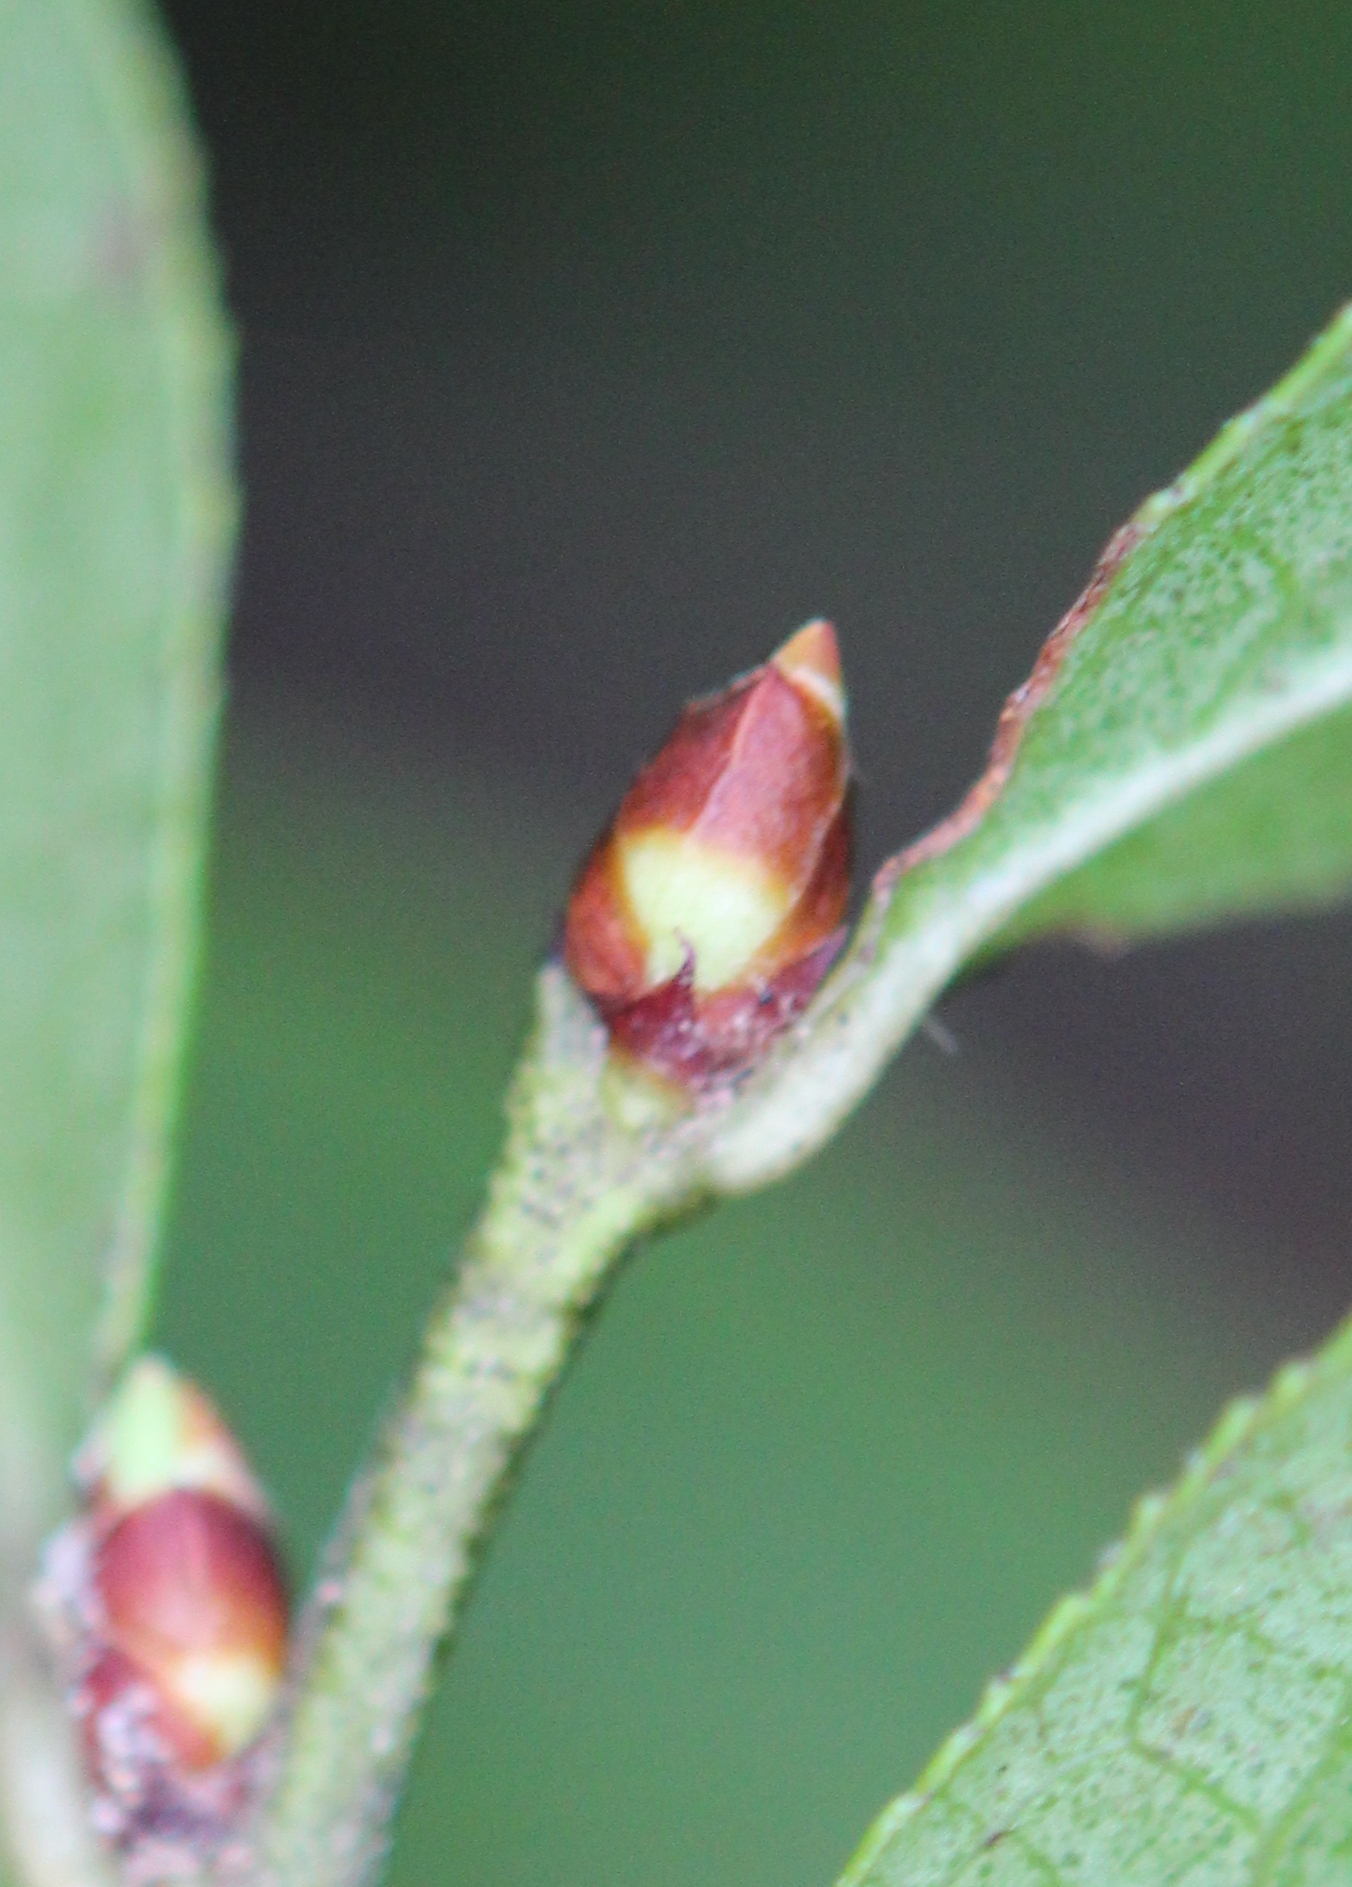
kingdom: Plantae
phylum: Tracheophyta
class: Magnoliopsida
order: Ericales
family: Ericaceae
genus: Vaccinium
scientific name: Vaccinium angustifolium
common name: Early lowbush blueberry
